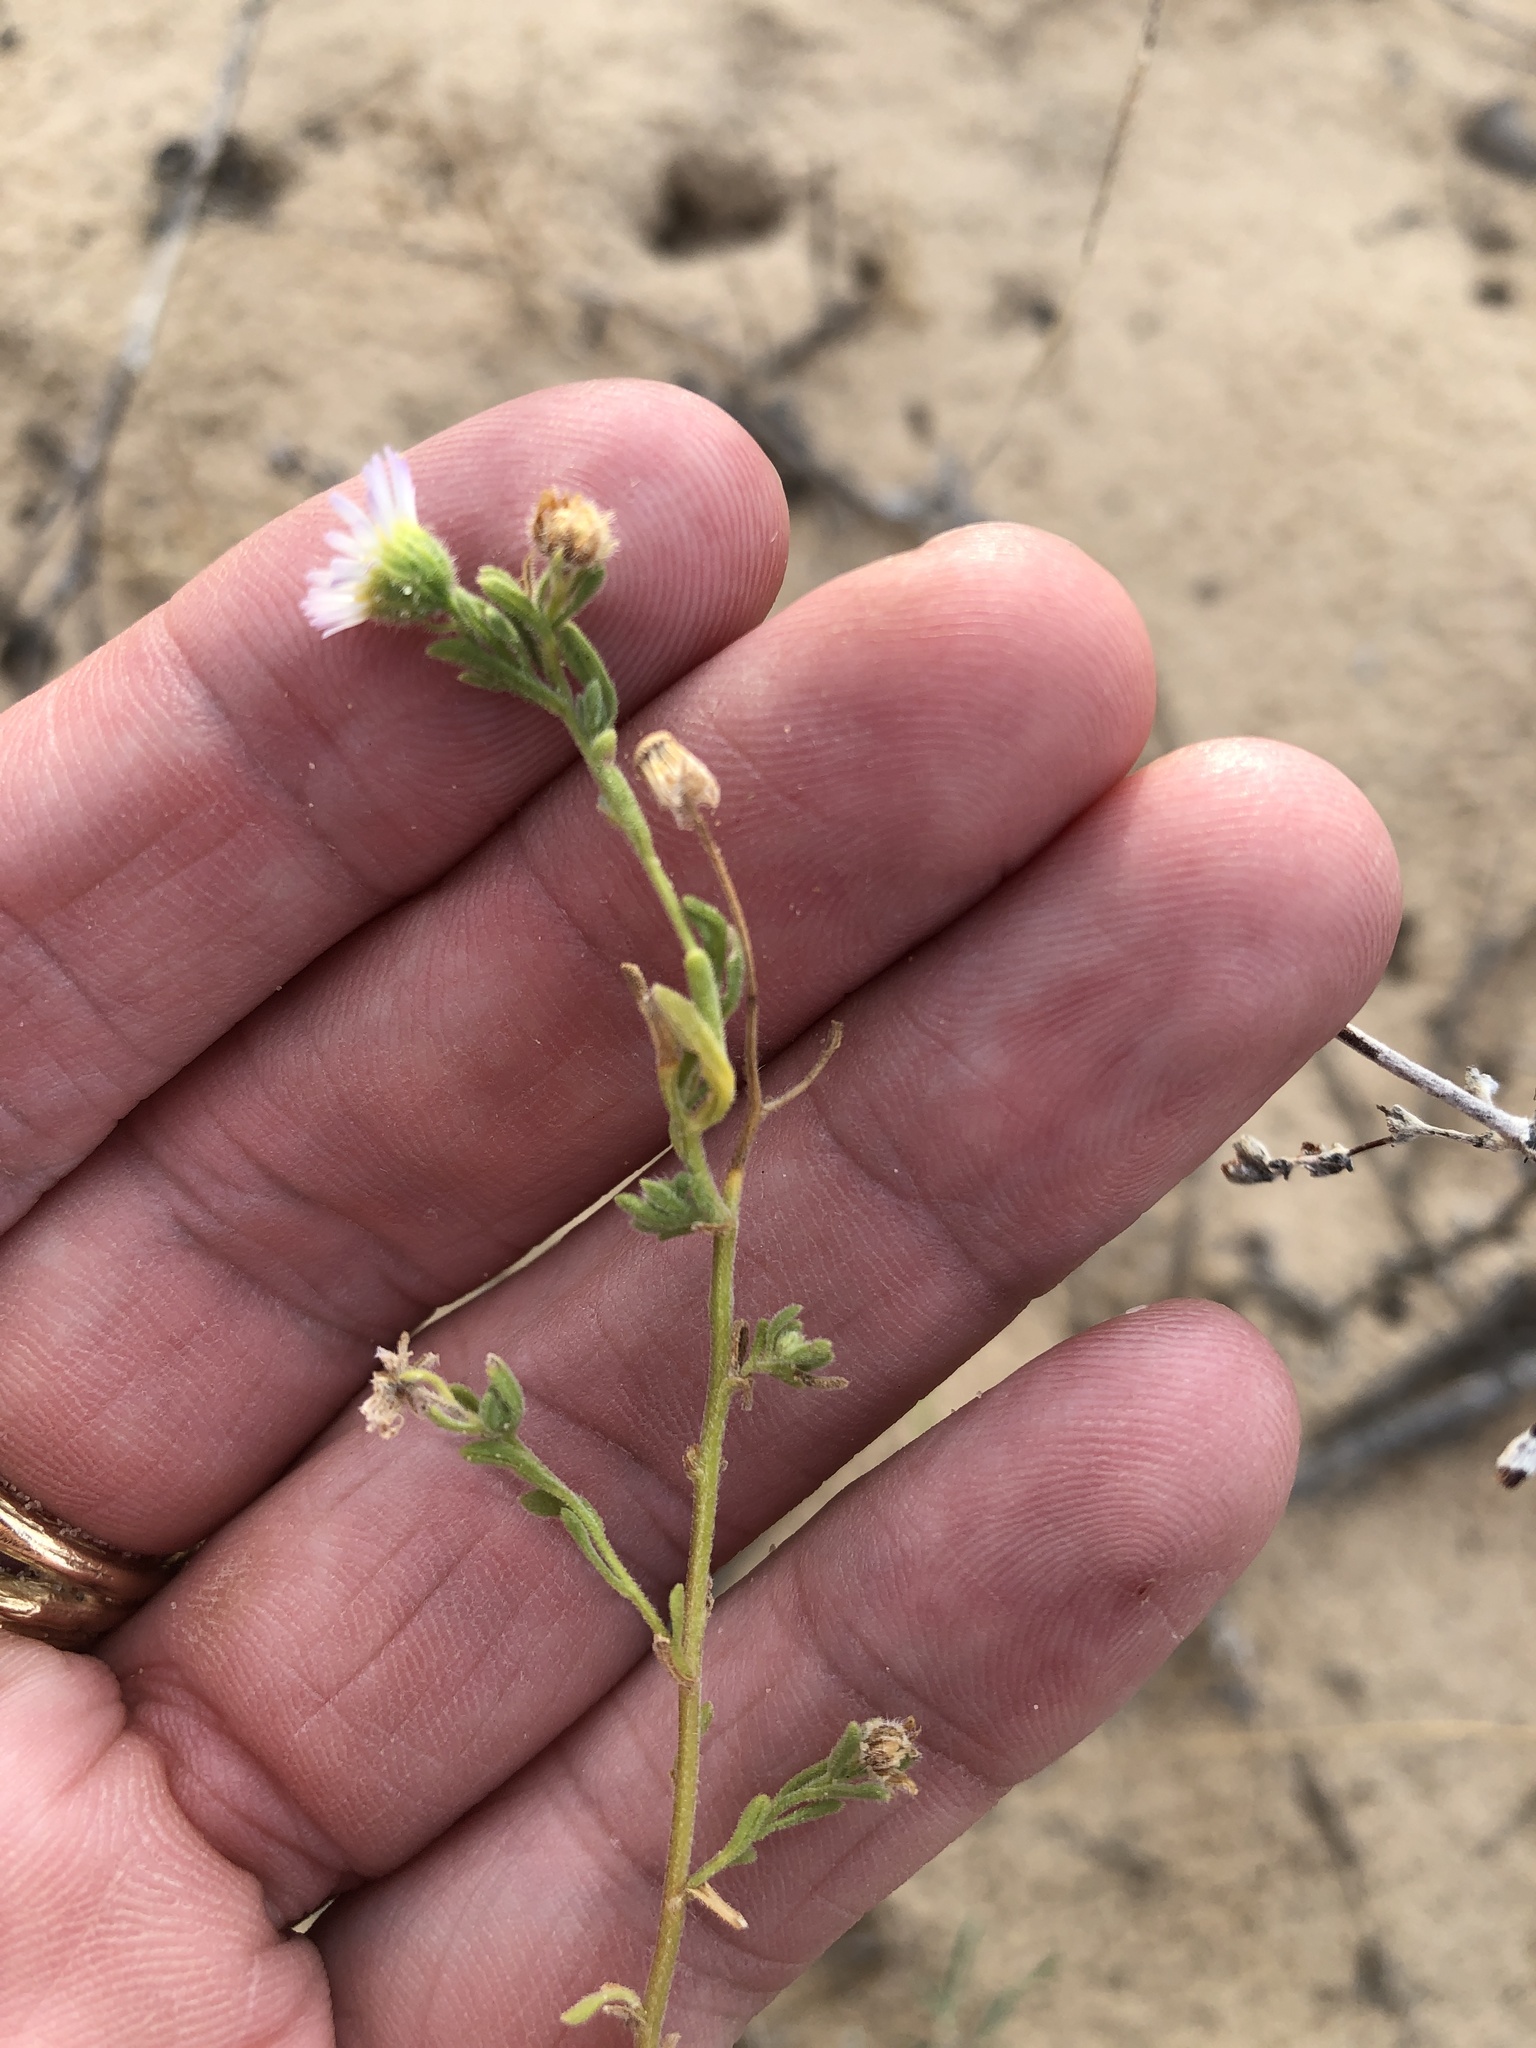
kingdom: Plantae
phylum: Tracheophyta
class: Magnoliopsida
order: Asterales
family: Asteraceae
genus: Erigeron
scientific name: Erigeron bellidiastrum
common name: Sand fleabane
